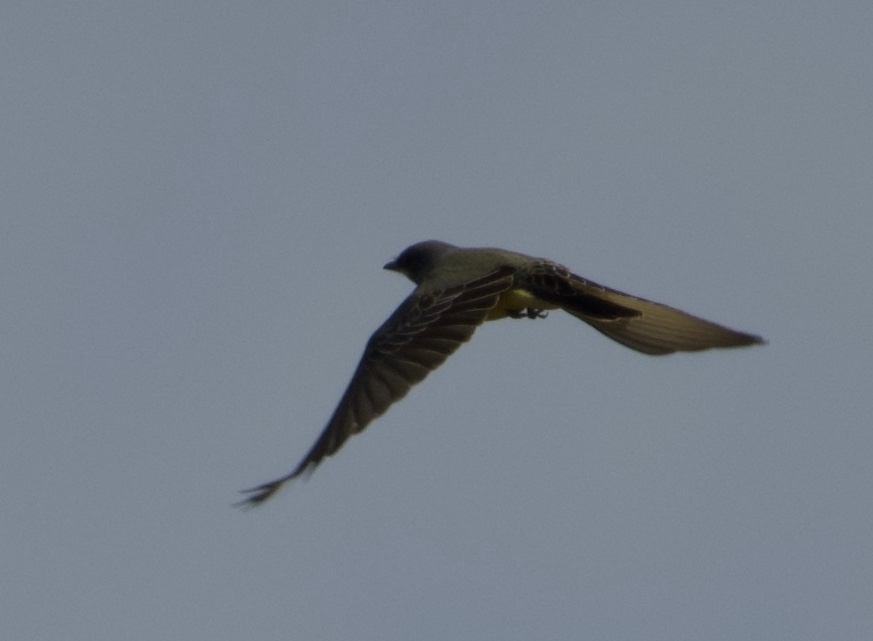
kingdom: Animalia
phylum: Chordata
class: Aves
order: Passeriformes
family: Tyrannidae
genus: Tyrannus
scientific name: Tyrannus vociferans
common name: Cassin's kingbird
